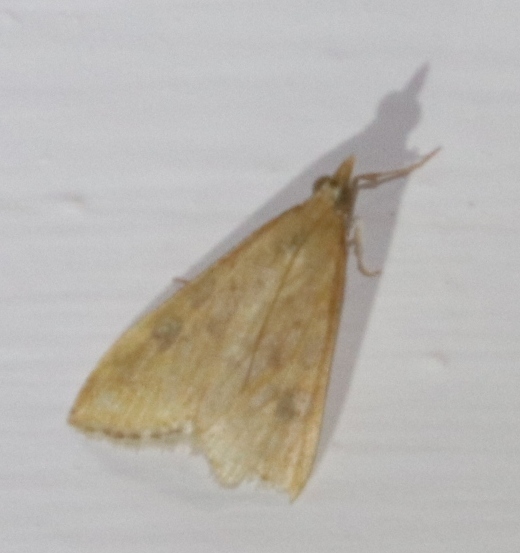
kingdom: Animalia
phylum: Arthropoda
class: Insecta
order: Lepidoptera
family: Crambidae
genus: Udea
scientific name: Udea ferrugalis
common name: Rusty dot
